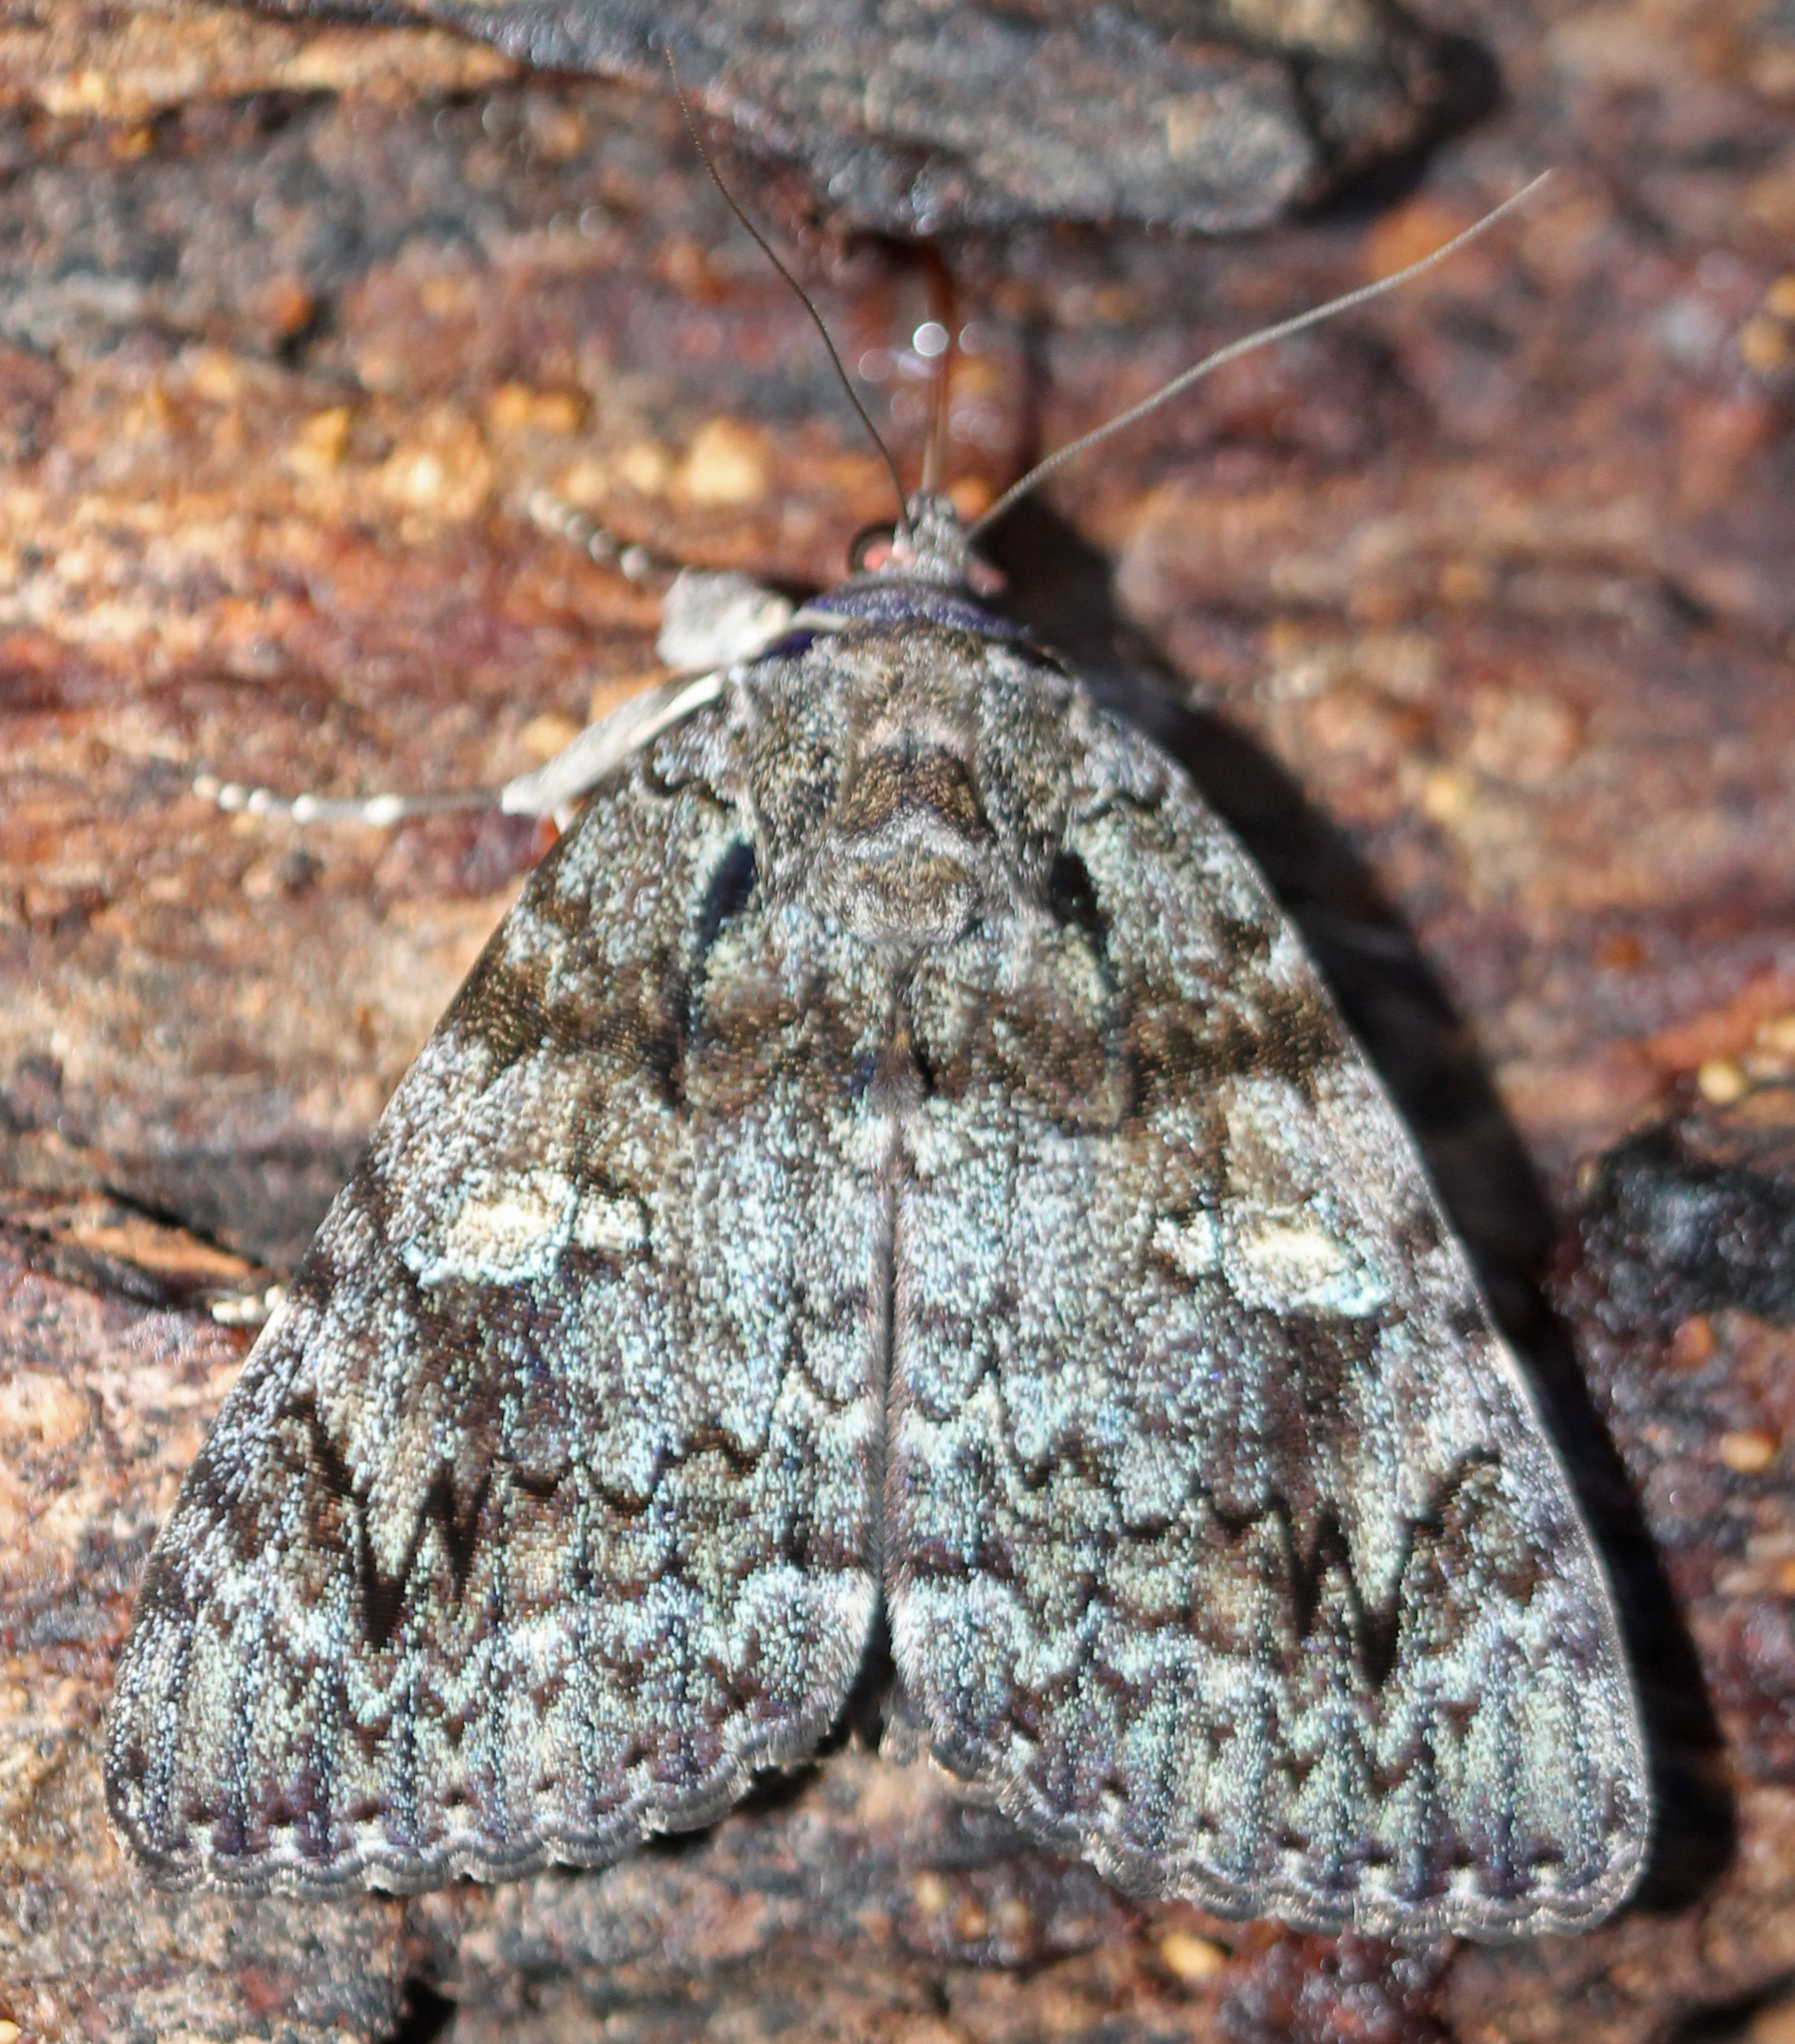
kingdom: Animalia
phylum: Arthropoda
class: Insecta
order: Lepidoptera
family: Erebidae
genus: Catocala
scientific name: Catocala ilia
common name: Ilia underwing
